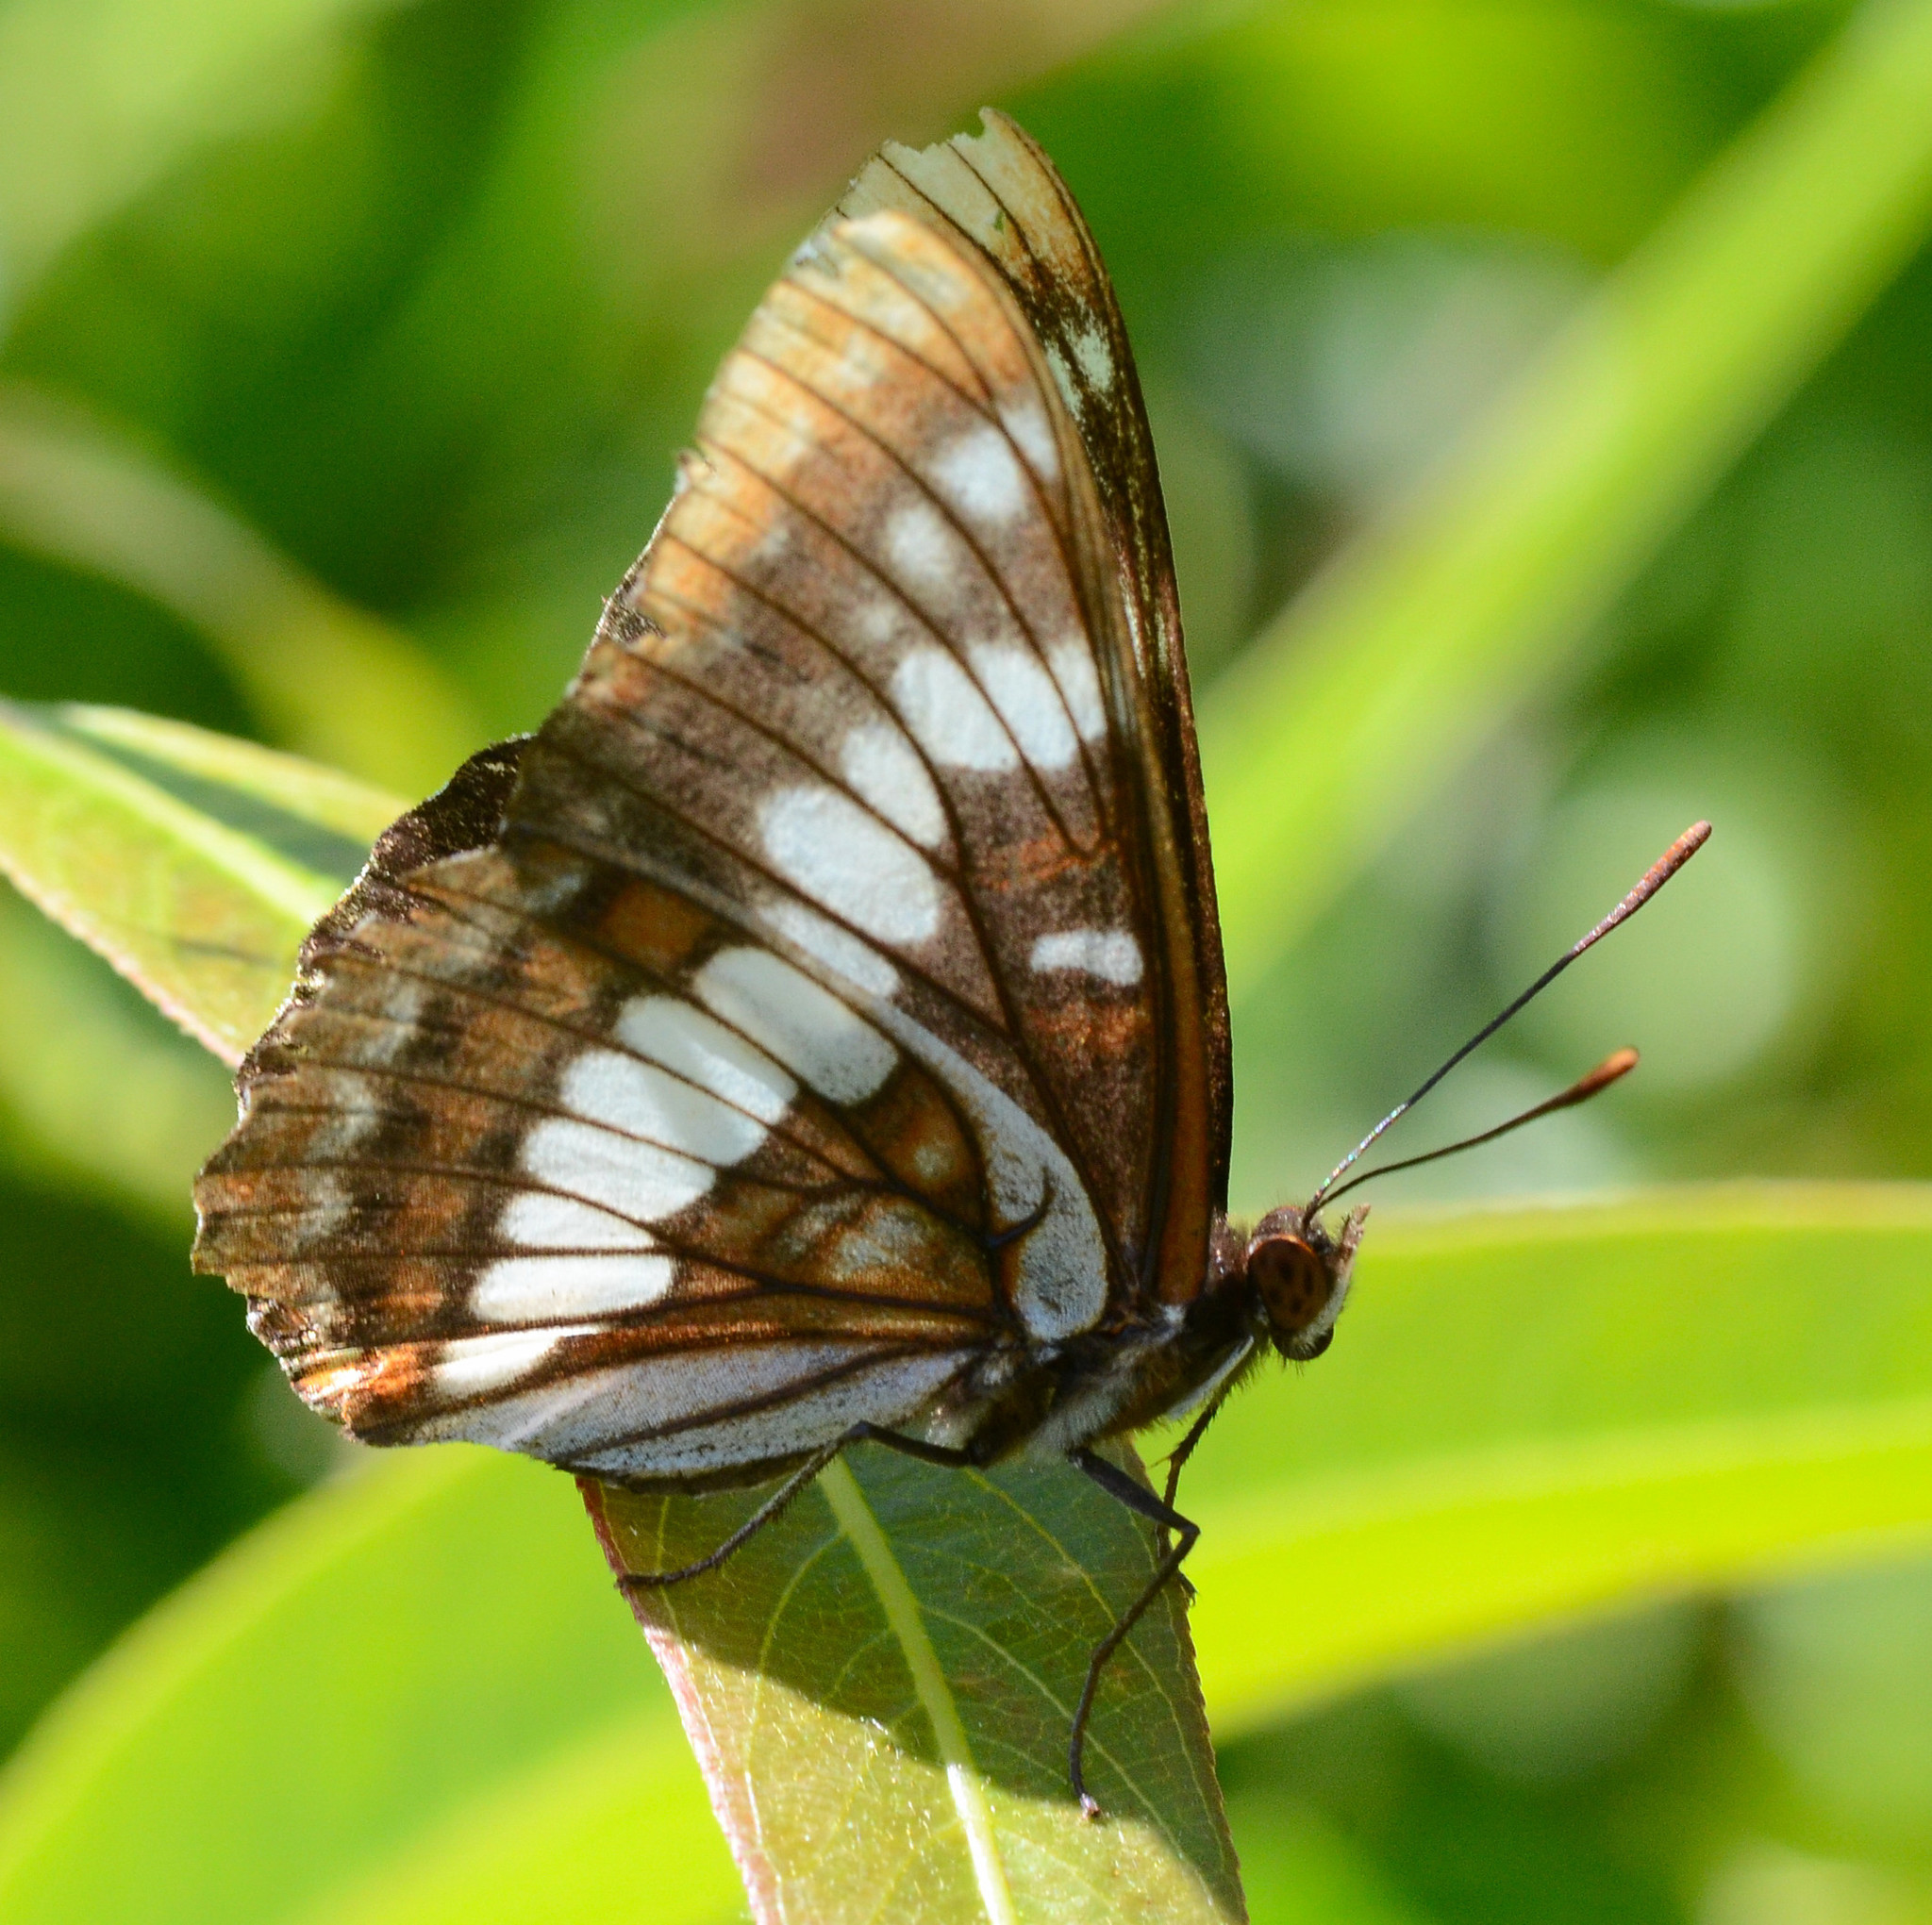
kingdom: Animalia
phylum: Arthropoda
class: Insecta
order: Lepidoptera
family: Nymphalidae
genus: Limenitis
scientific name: Limenitis lorquini
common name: Lorquin's admiral
